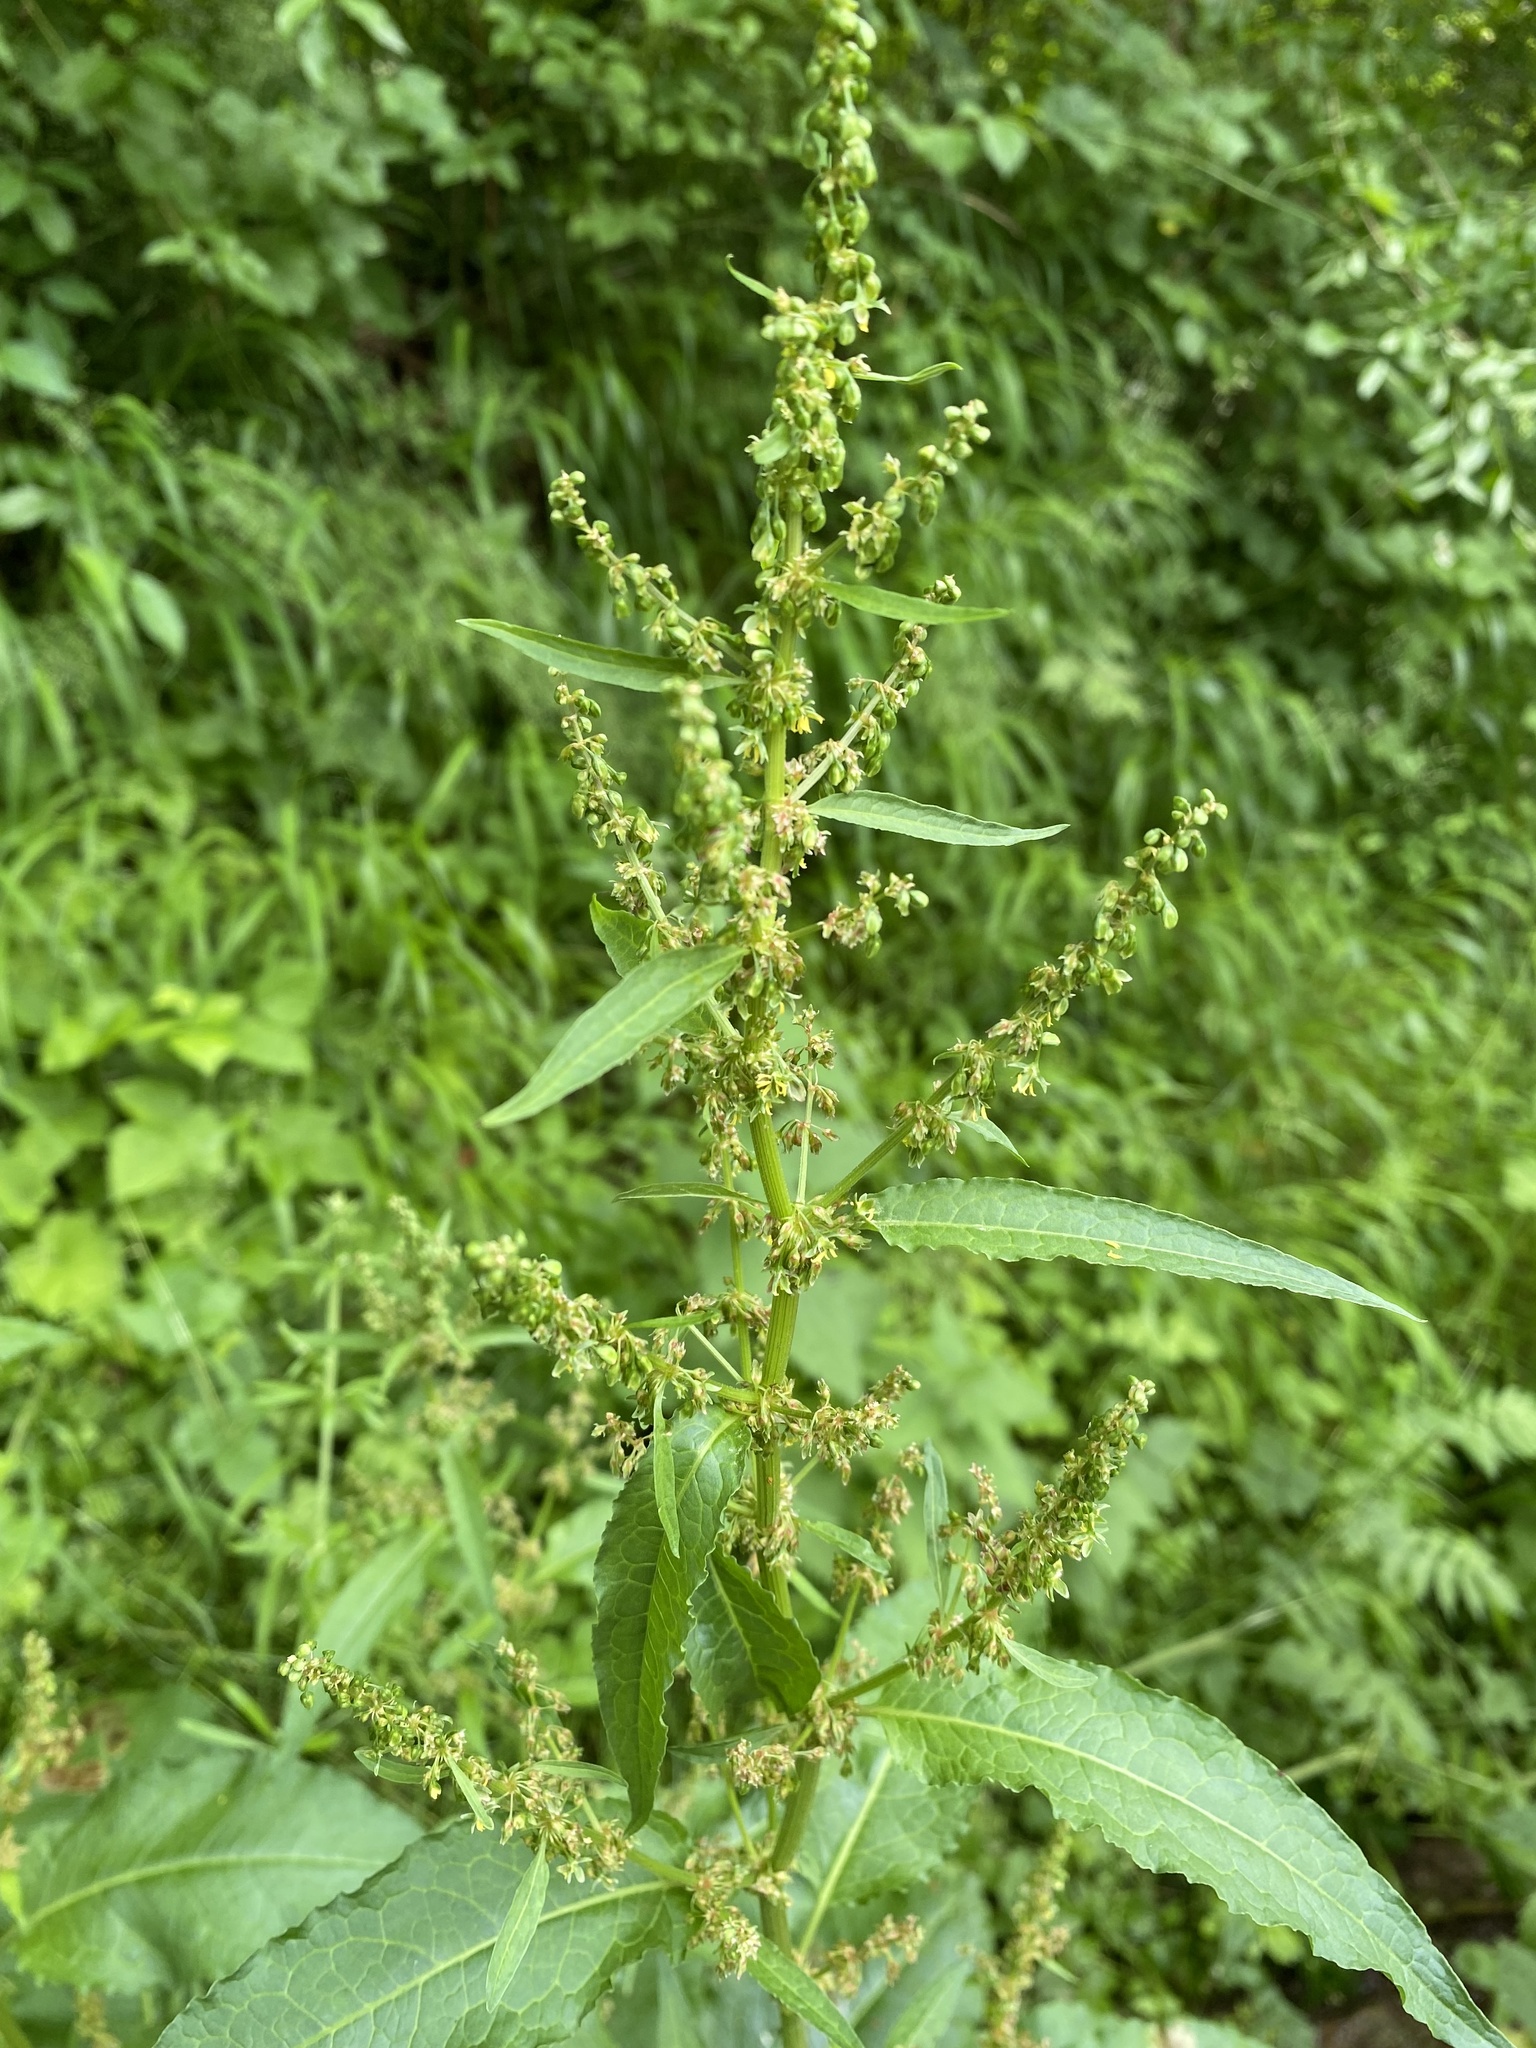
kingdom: Plantae
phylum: Tracheophyta
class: Magnoliopsida
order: Caryophyllales
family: Polygonaceae
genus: Rumex
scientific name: Rumex crispus
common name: Curled dock
